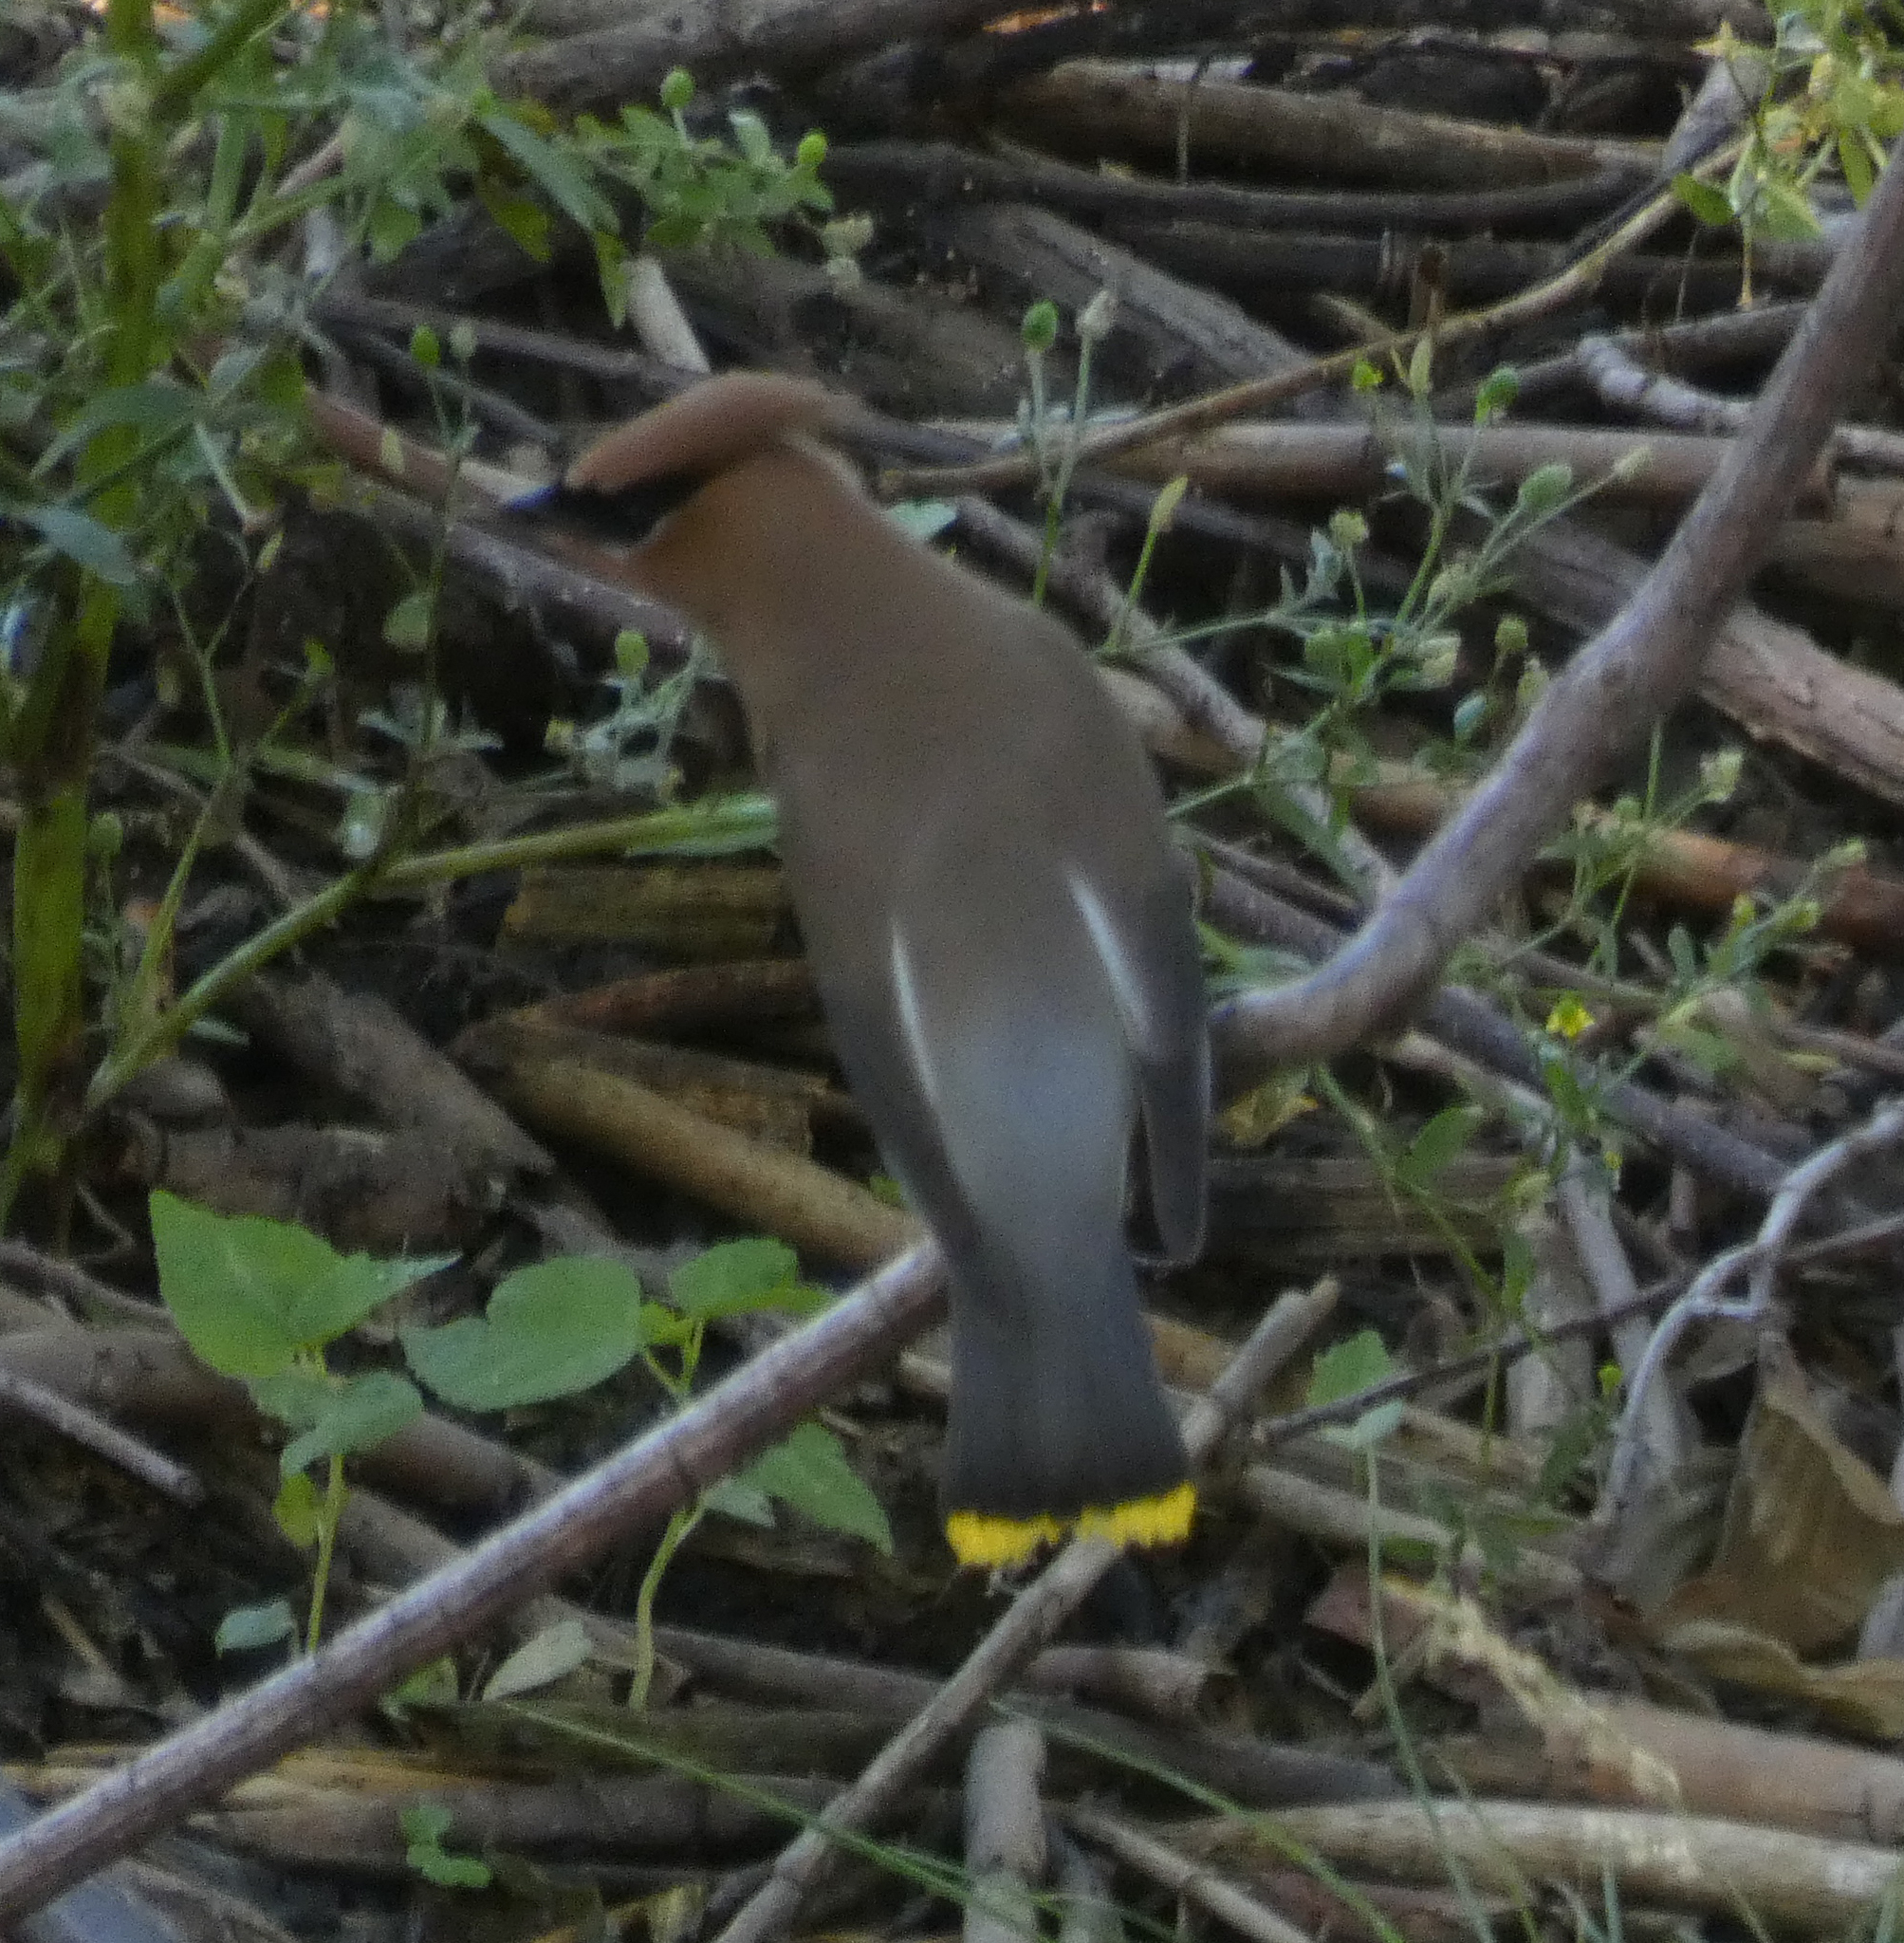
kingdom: Animalia
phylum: Chordata
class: Aves
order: Passeriformes
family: Bombycillidae
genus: Bombycilla
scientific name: Bombycilla cedrorum
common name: Cedar waxwing
